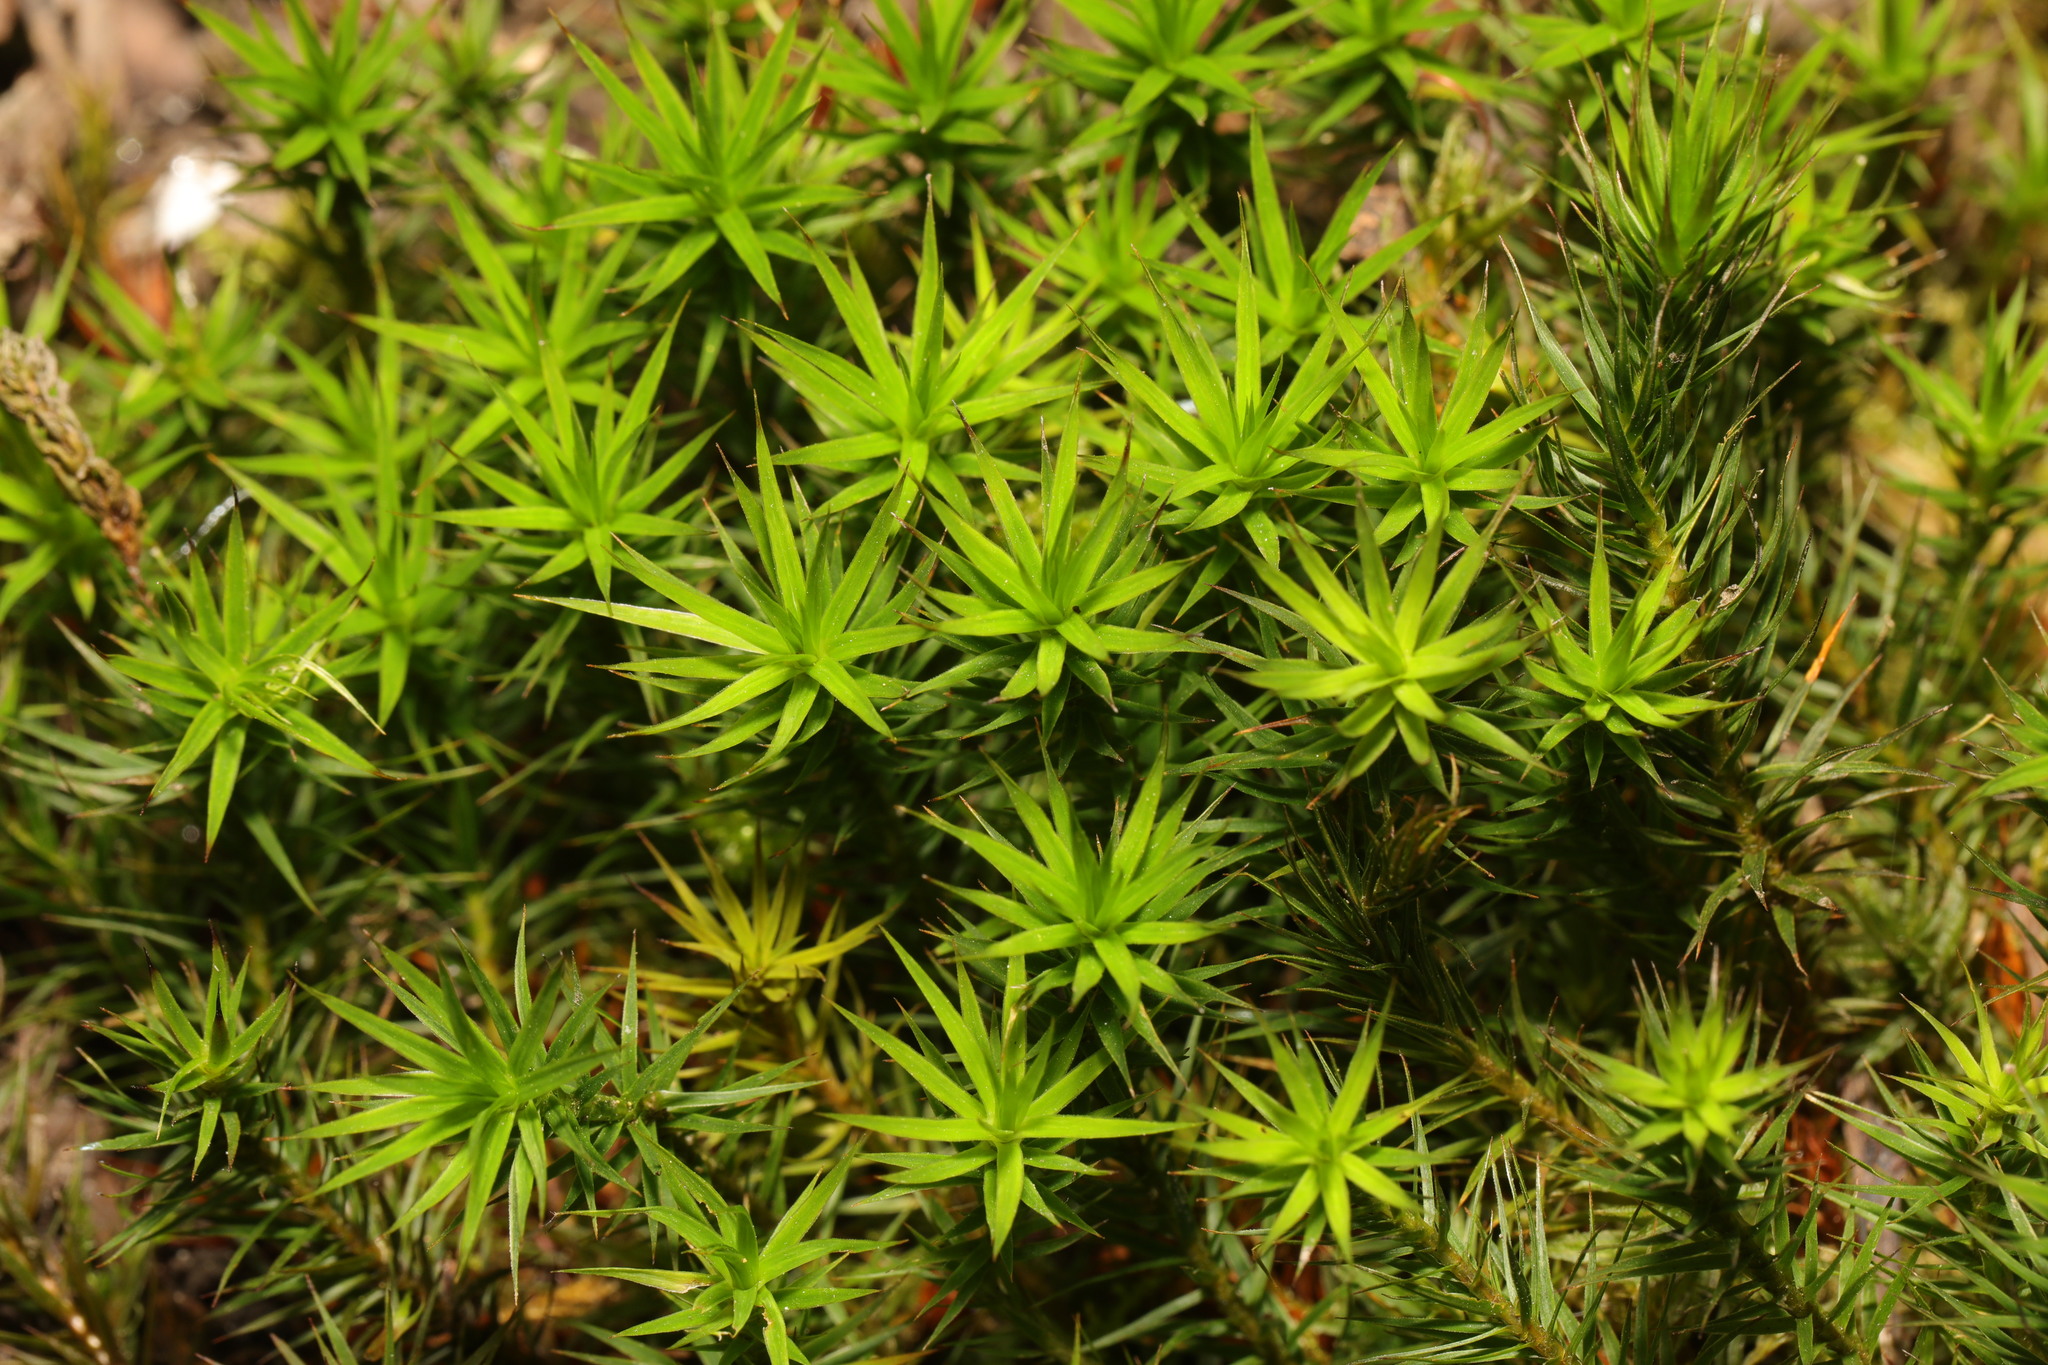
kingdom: Plantae
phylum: Bryophyta
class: Polytrichopsida
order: Polytrichales
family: Polytrichaceae
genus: Polytrichum
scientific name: Polytrichum formosum
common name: Bank haircap moss
